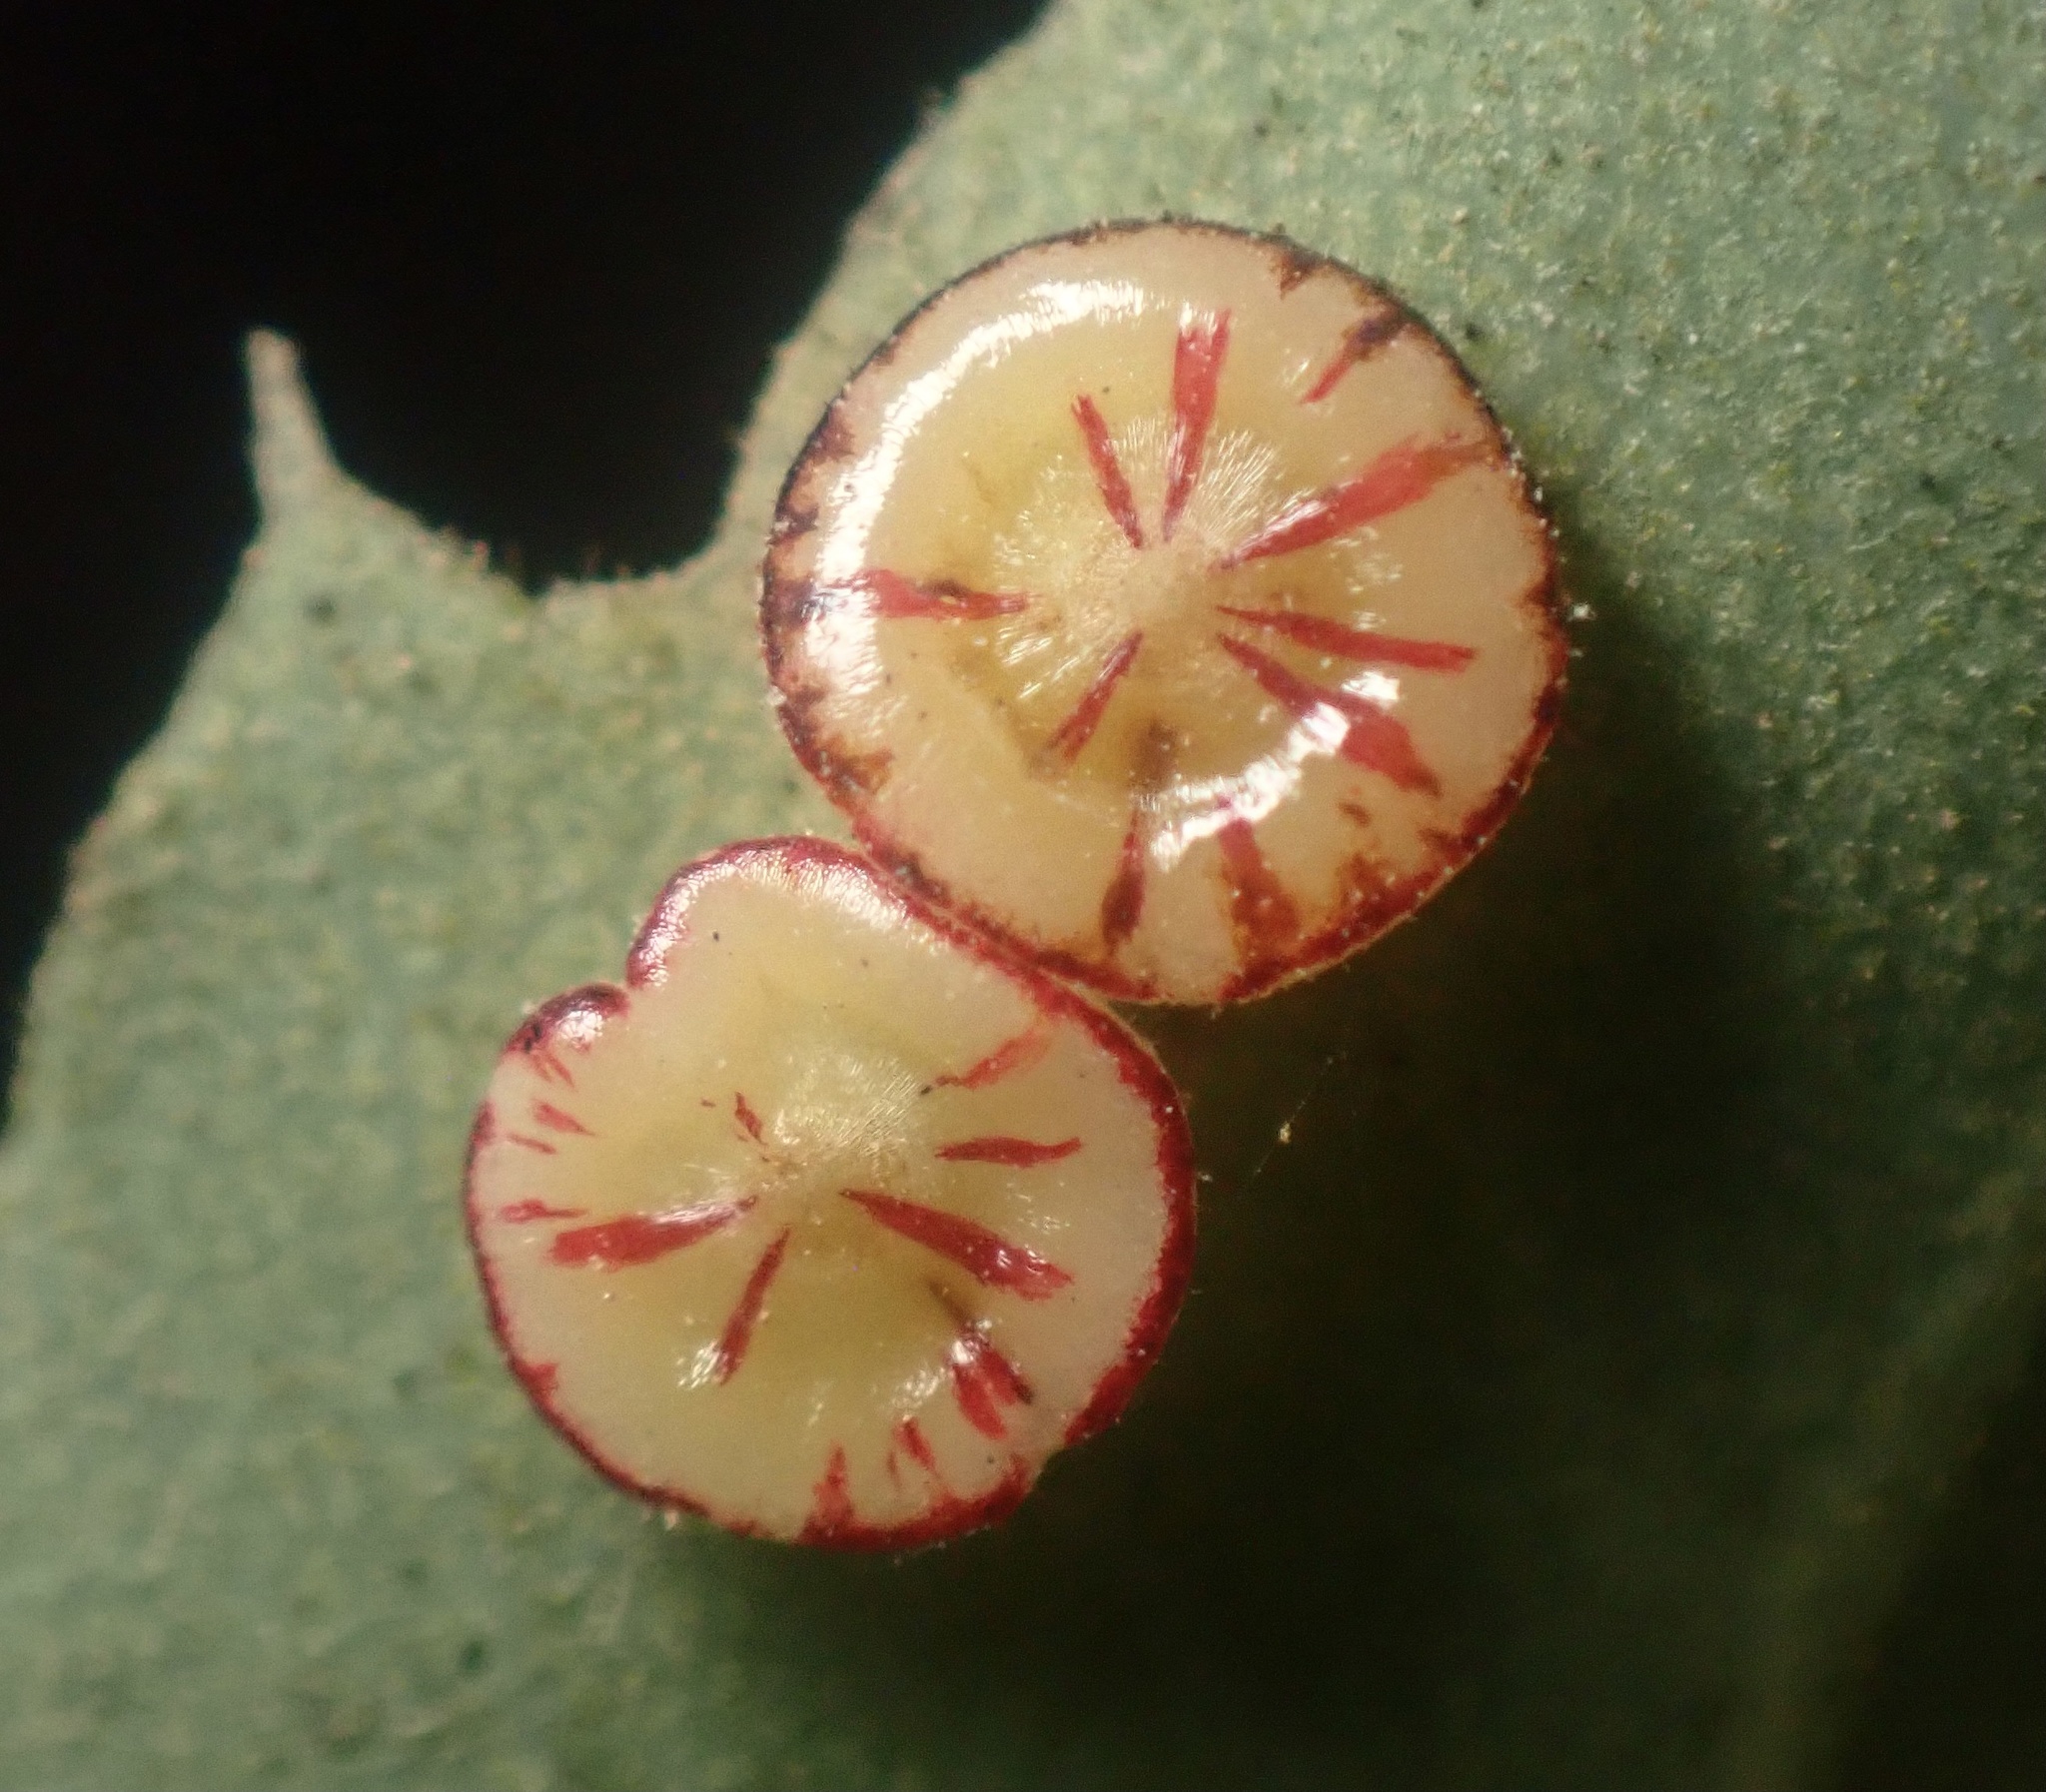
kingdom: Animalia
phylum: Arthropoda
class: Insecta
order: Hymenoptera
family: Cynipidae
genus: Andricus
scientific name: Andricus
